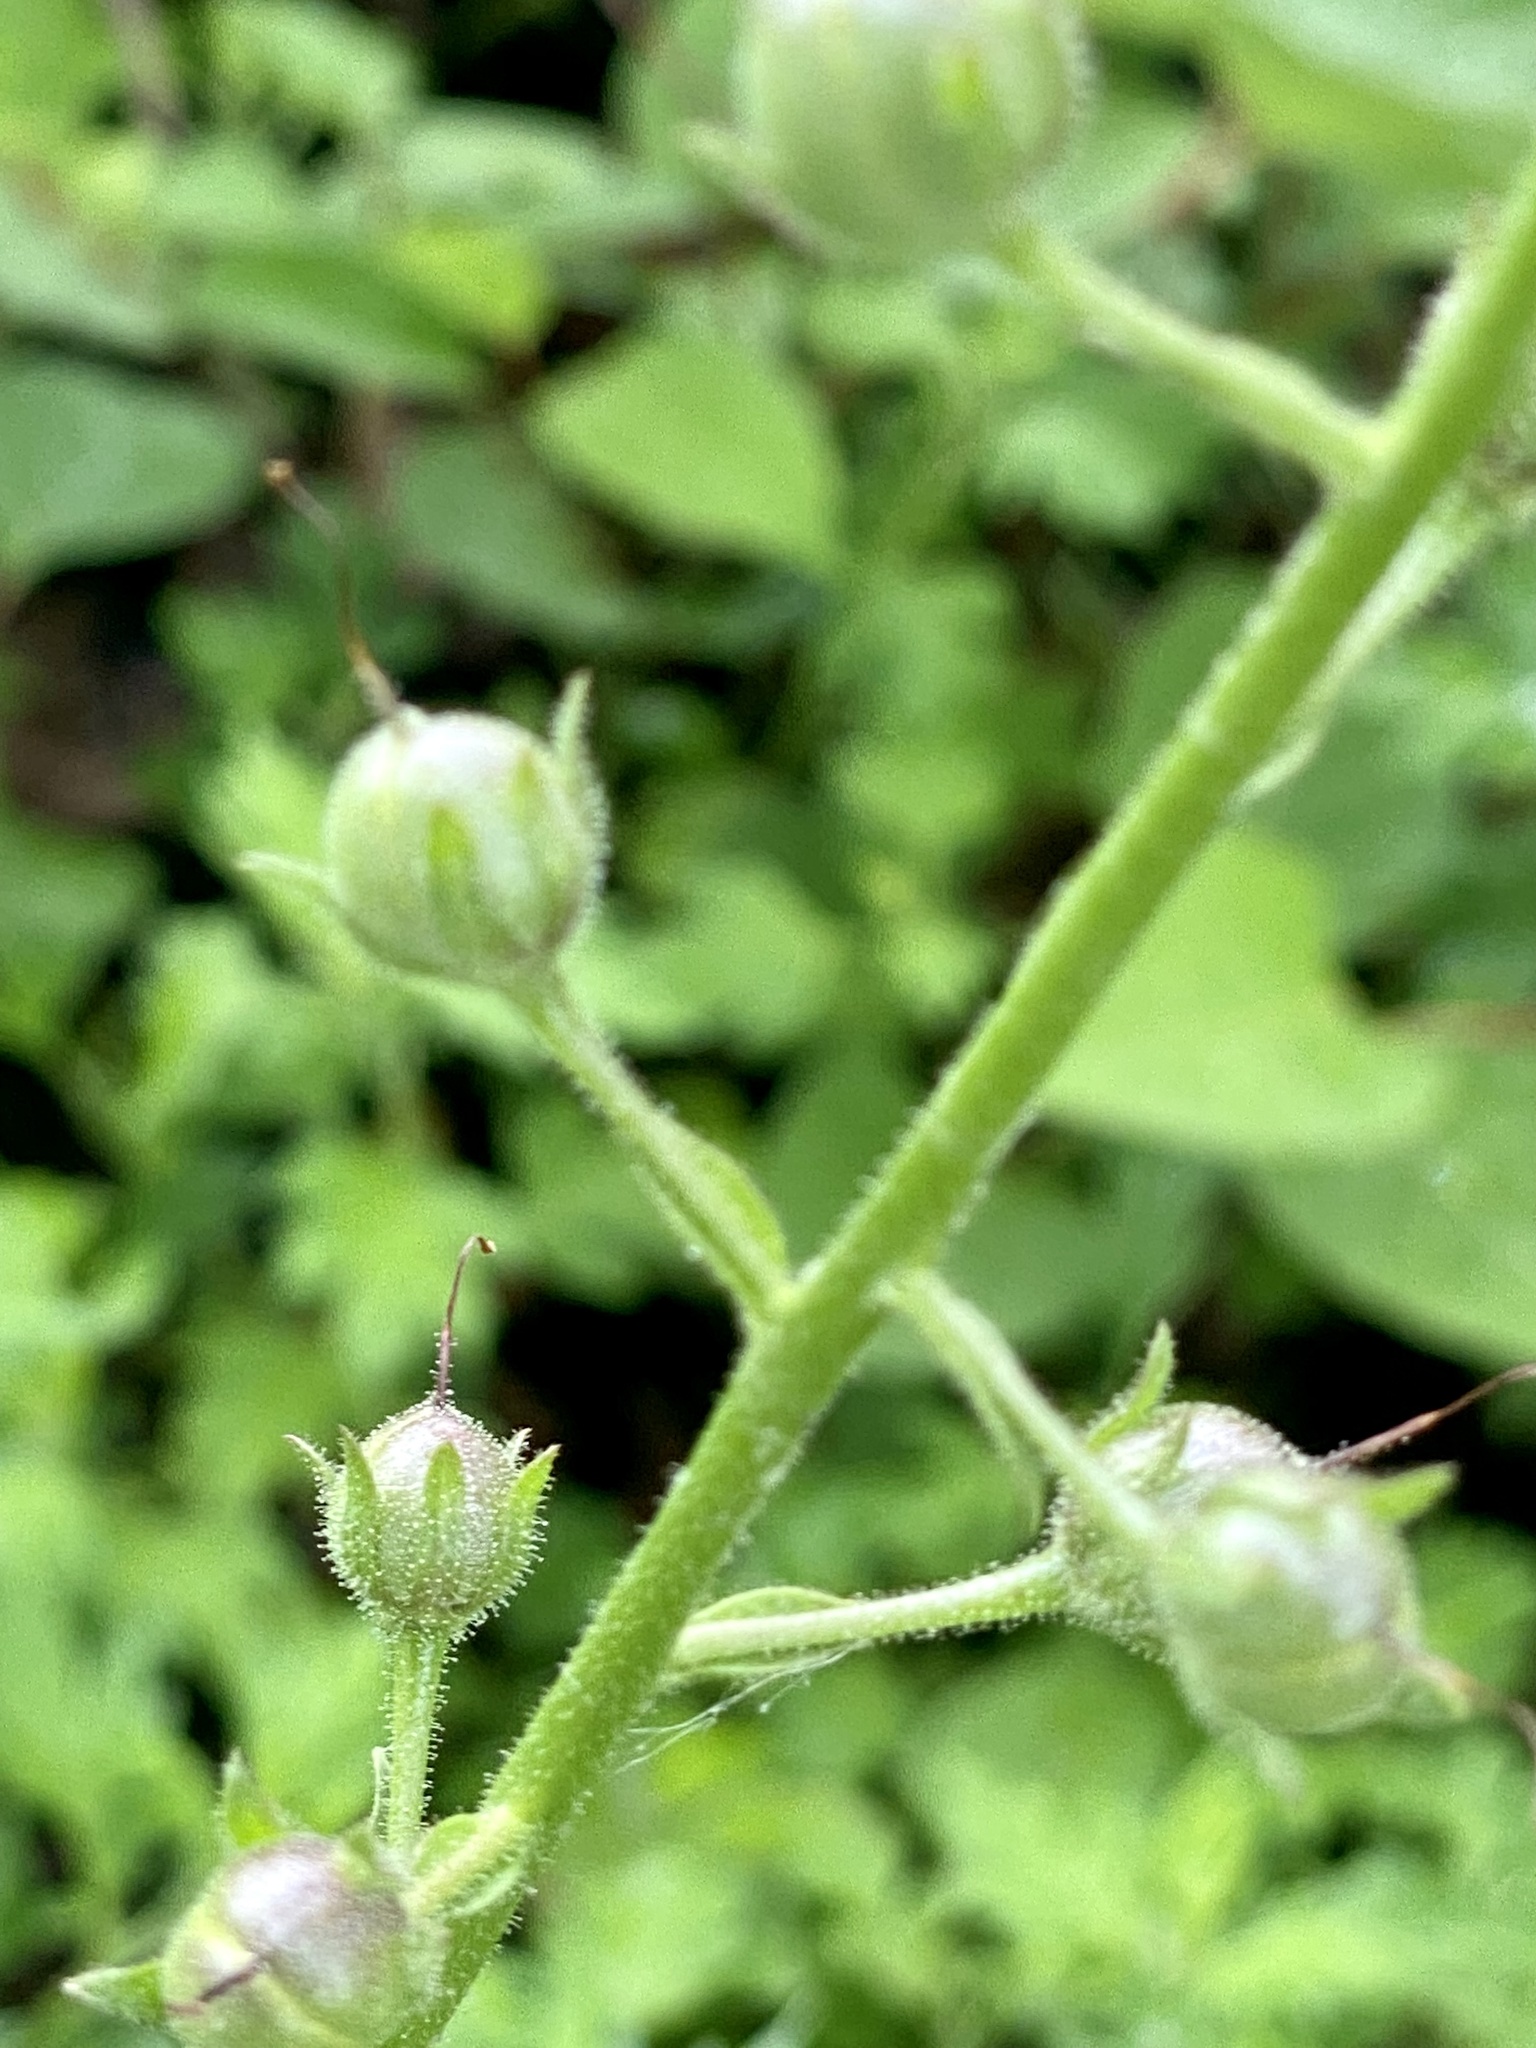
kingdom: Plantae
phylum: Tracheophyta
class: Magnoliopsida
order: Lamiales
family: Scrophulariaceae
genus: Verbascum
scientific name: Verbascum blattaria
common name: Moth mullein
